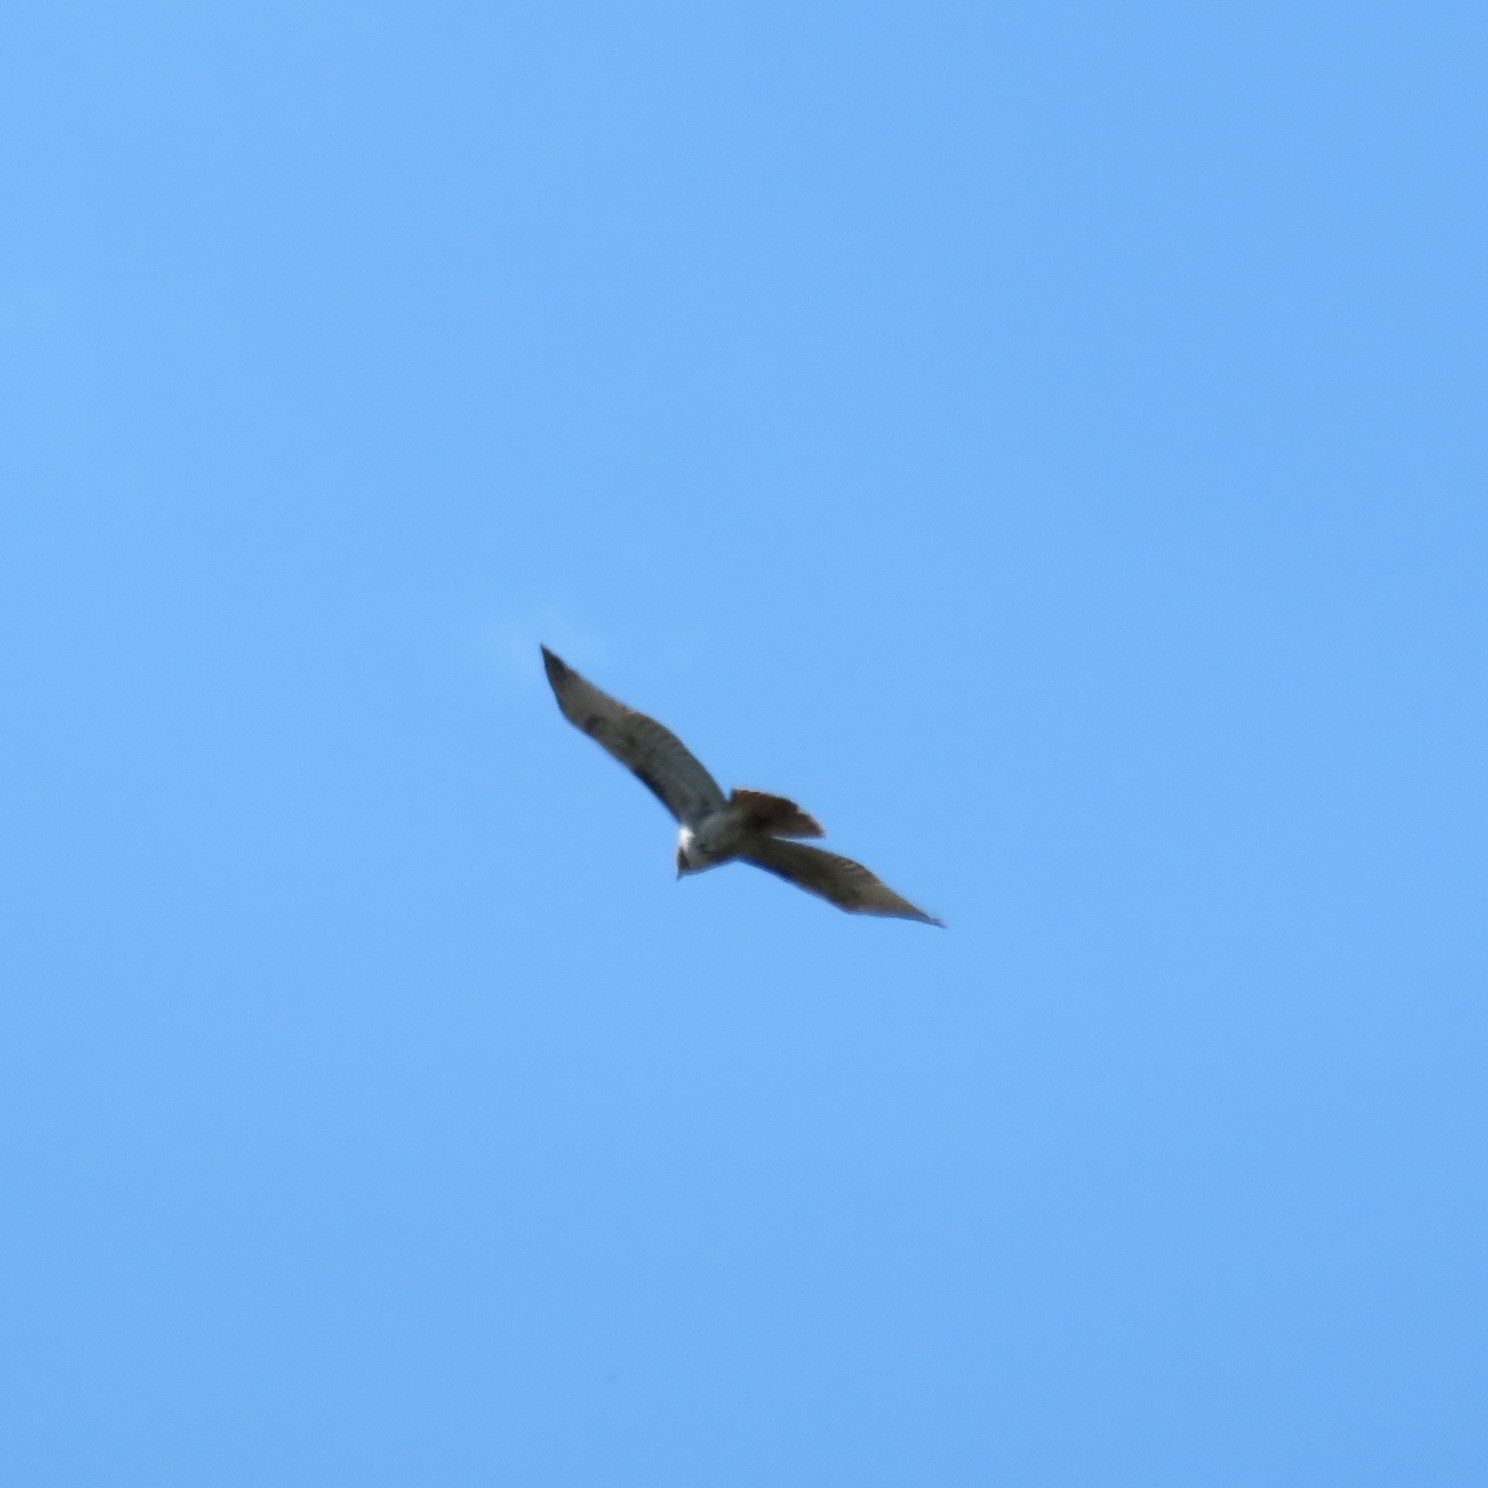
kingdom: Animalia
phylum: Chordata
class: Aves
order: Accipitriformes
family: Accipitridae
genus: Buteo
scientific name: Buteo jamaicensis
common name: Red-tailed hawk
